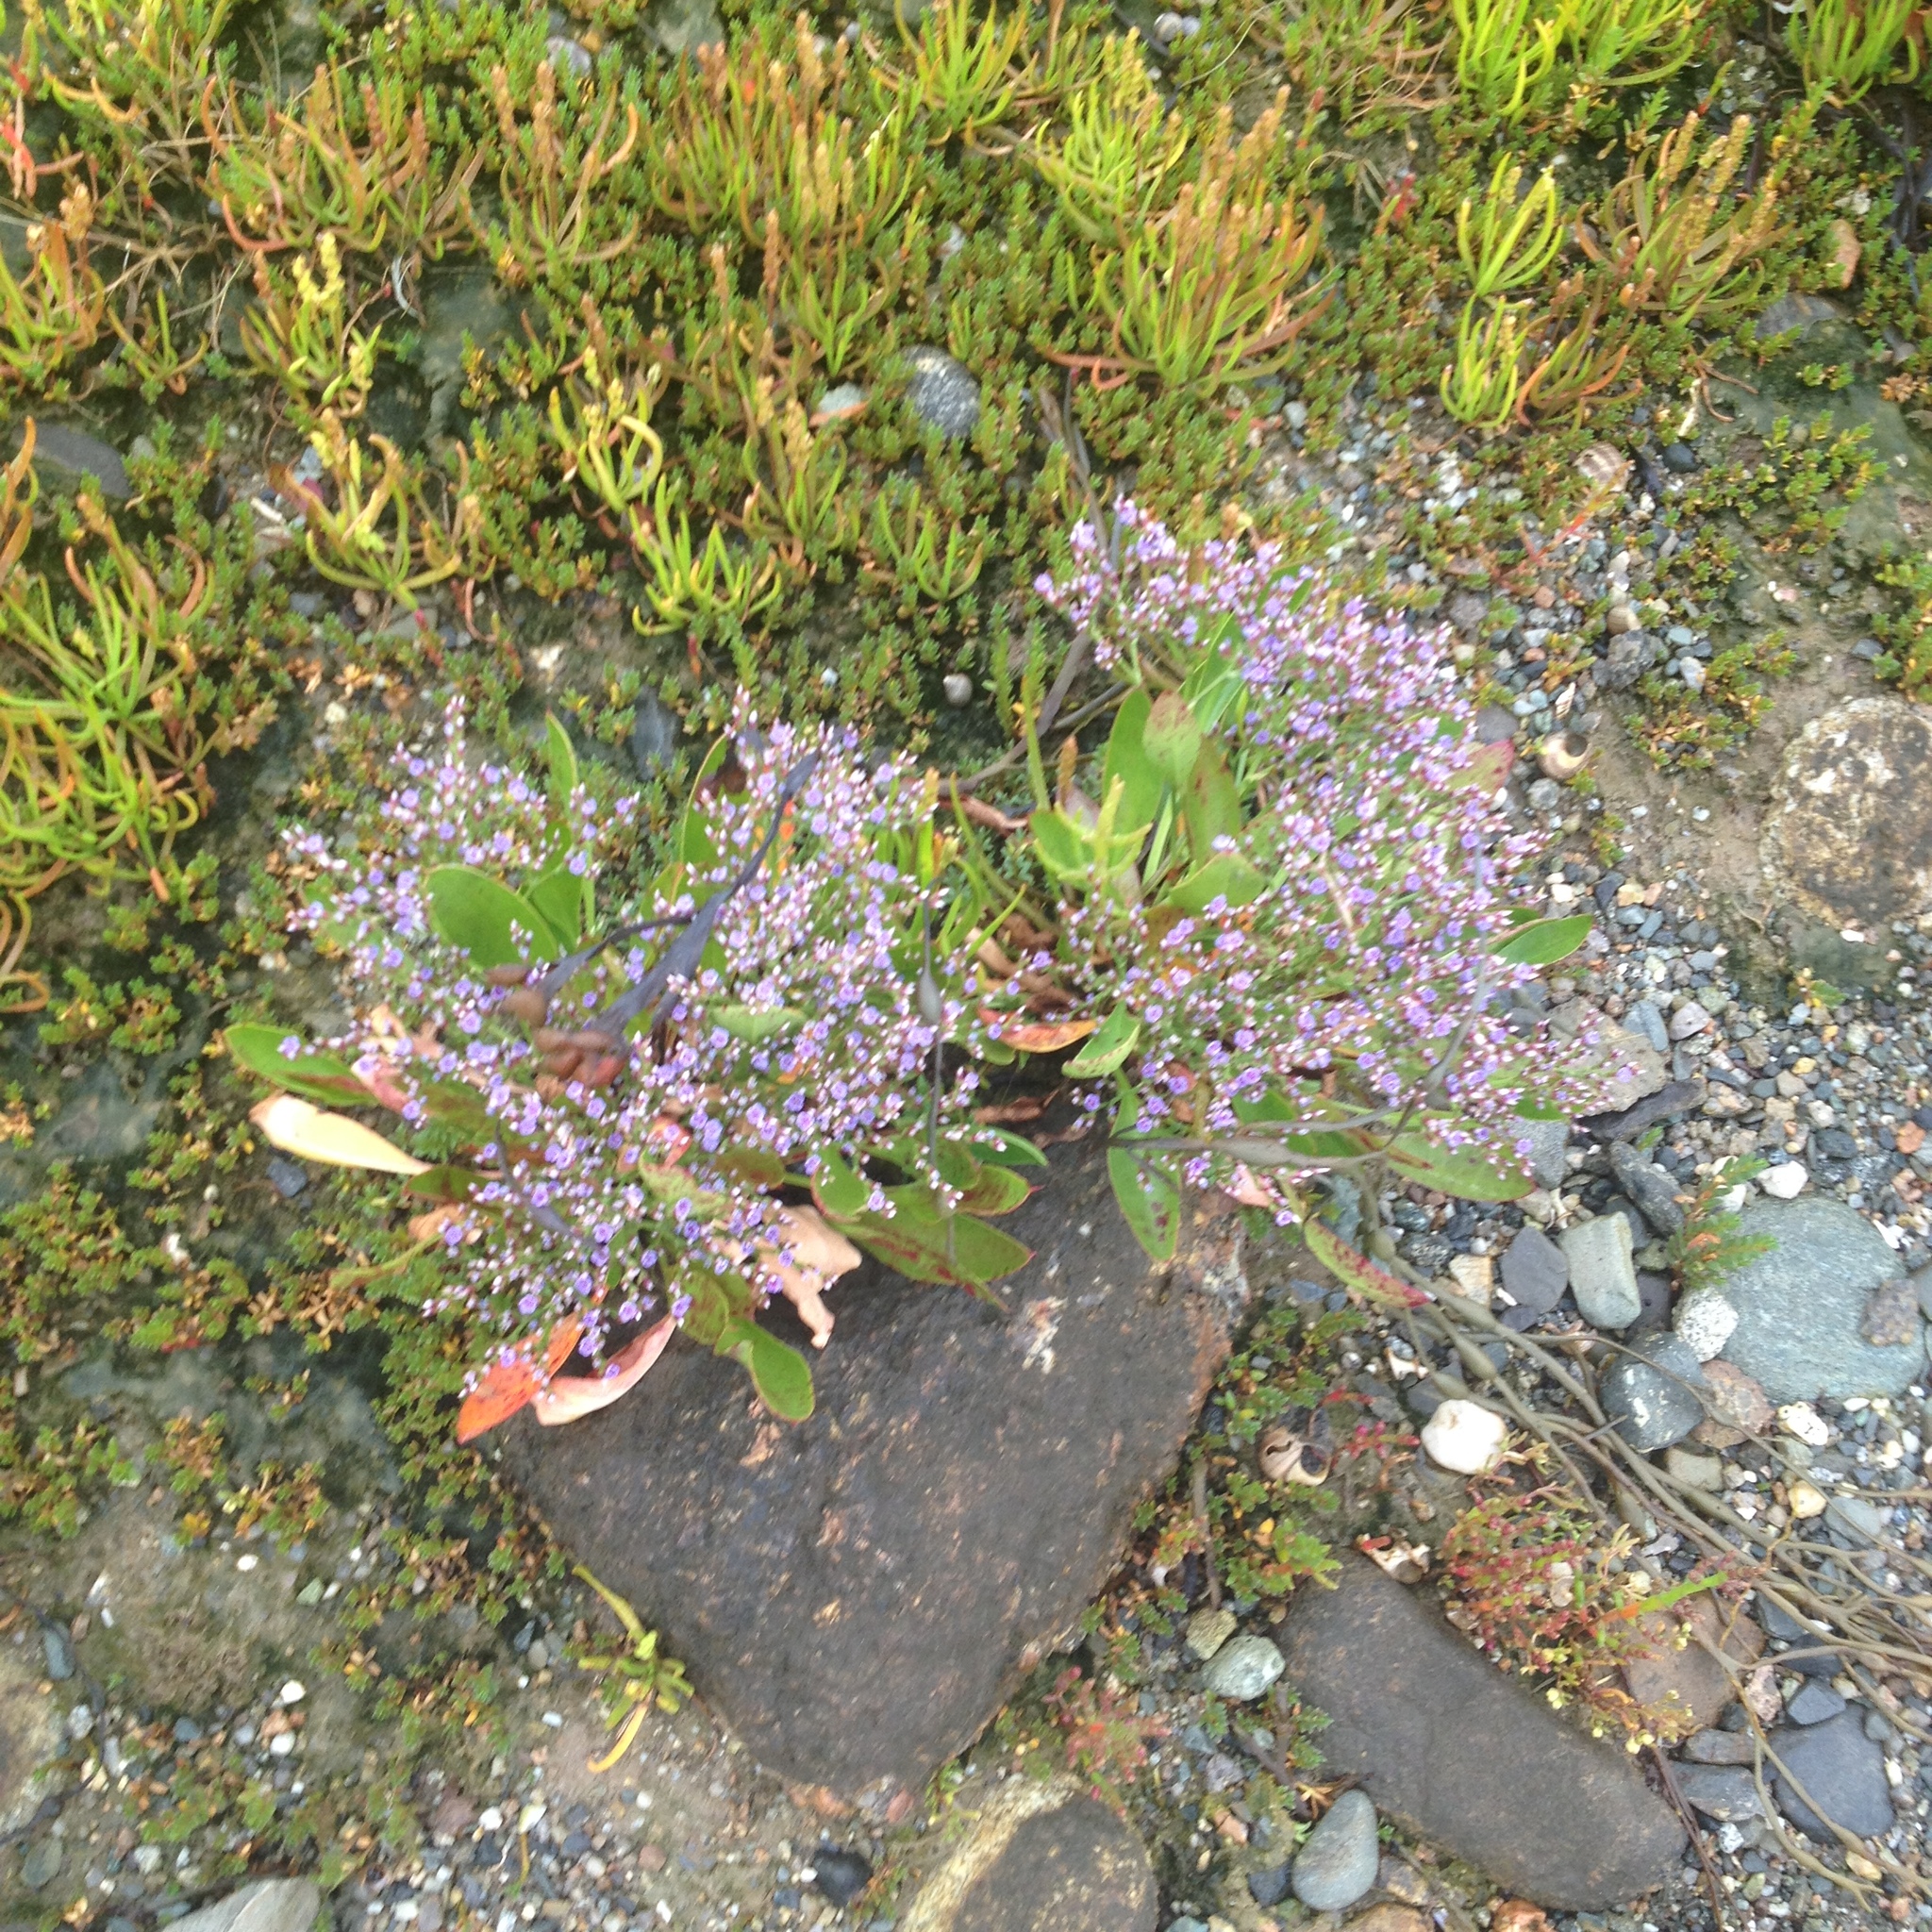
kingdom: Plantae
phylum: Tracheophyta
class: Magnoliopsida
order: Caryophyllales
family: Plumbaginaceae
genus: Limonium
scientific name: Limonium carolinianum
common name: Carolina sea lavender
